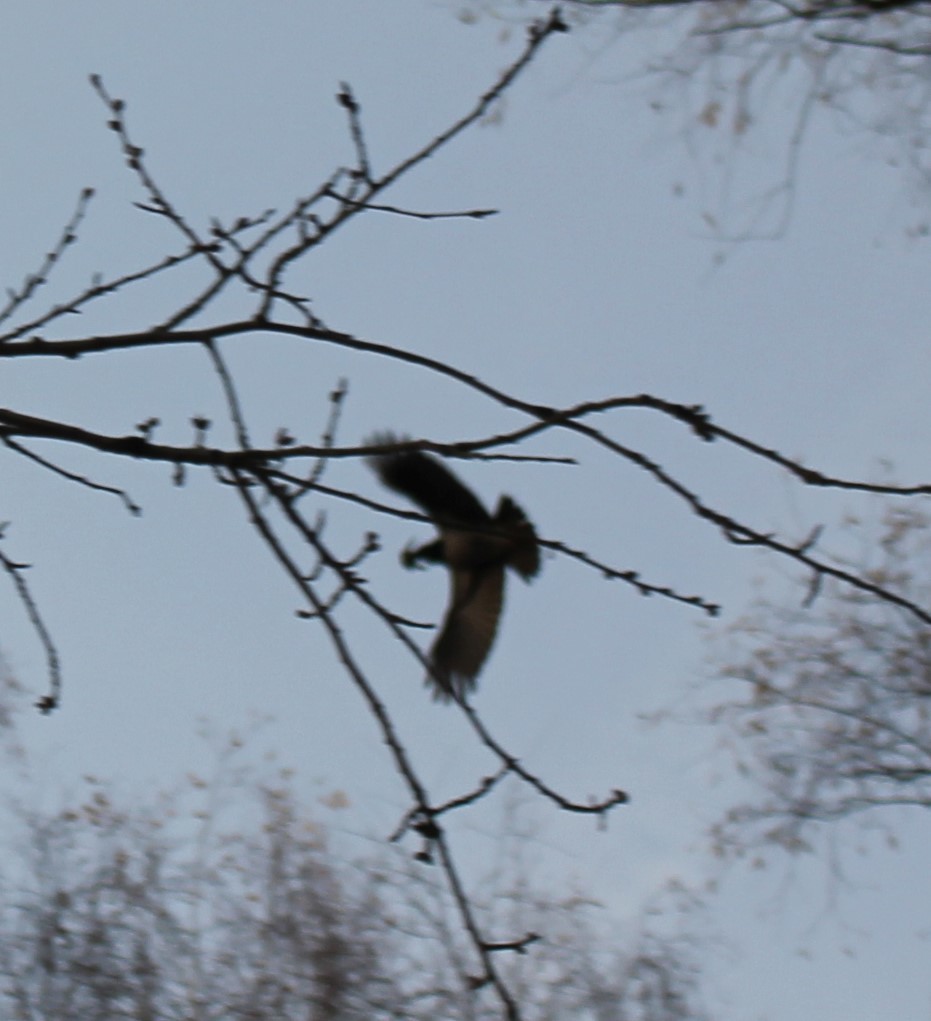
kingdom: Animalia
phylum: Chordata
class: Aves
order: Passeriformes
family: Corvidae
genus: Corvus
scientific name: Corvus cornix
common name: Hooded crow
